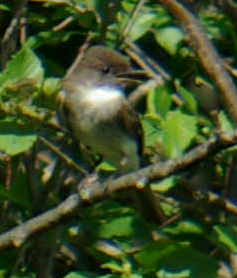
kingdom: Animalia
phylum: Chordata
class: Aves
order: Passeriformes
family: Tyrannidae
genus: Sayornis
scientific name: Sayornis phoebe
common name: Eastern phoebe
